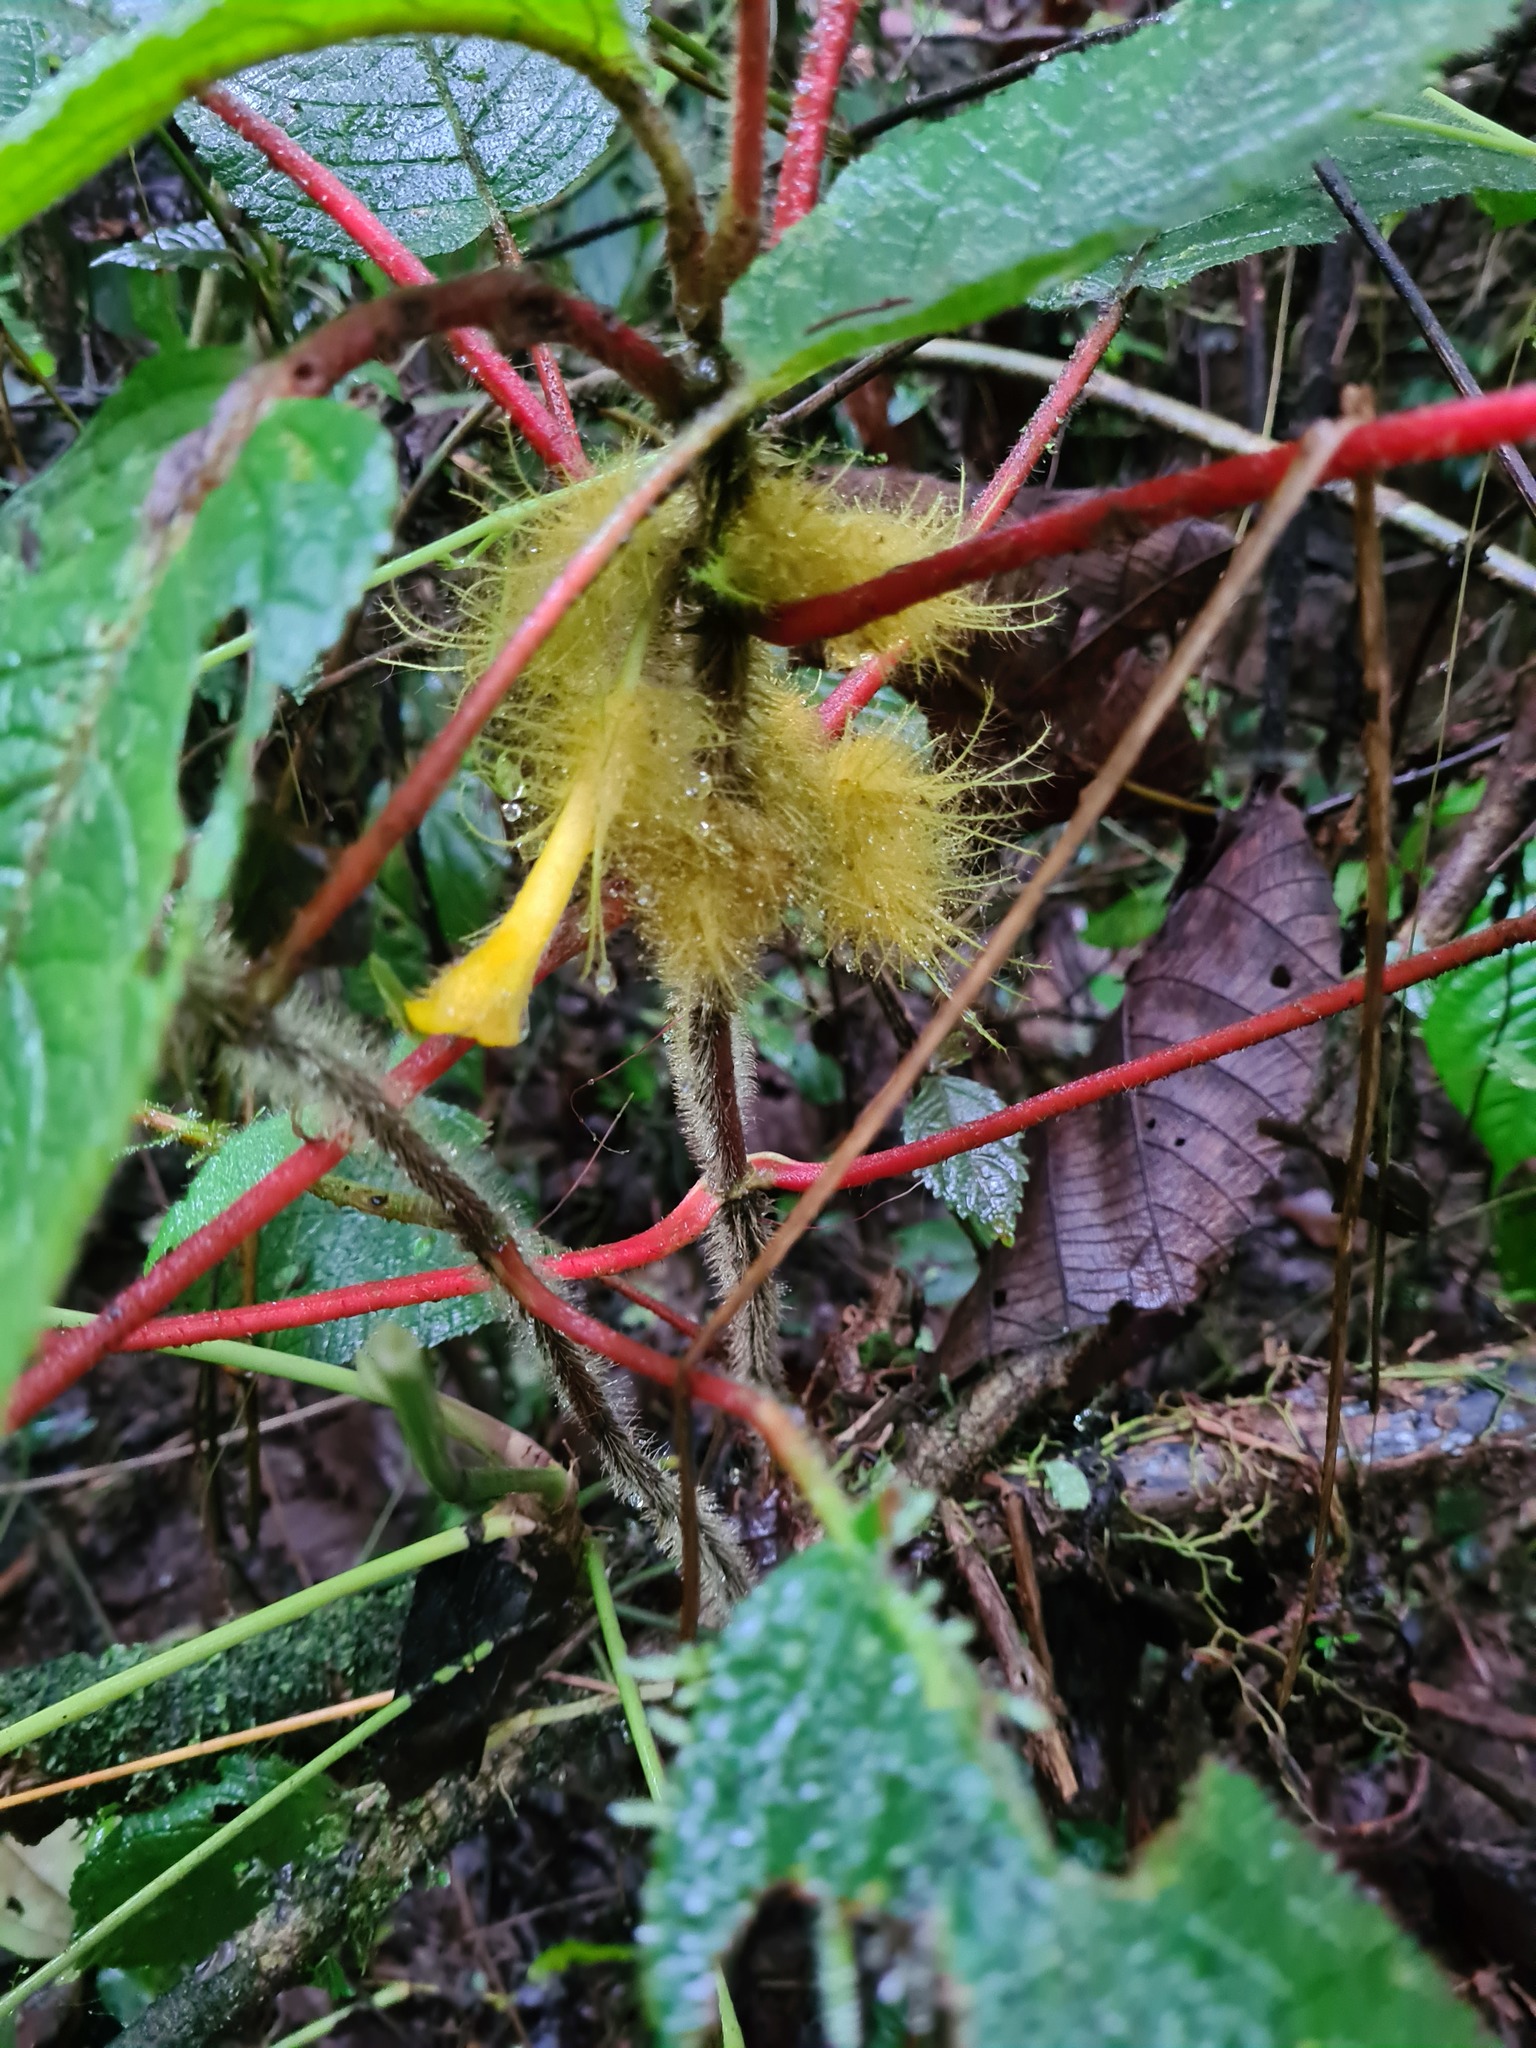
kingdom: Plantae
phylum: Tracheophyta
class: Magnoliopsida
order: Lamiales
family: Gesneriaceae
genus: Glossoloma
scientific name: Glossoloma sprucei
